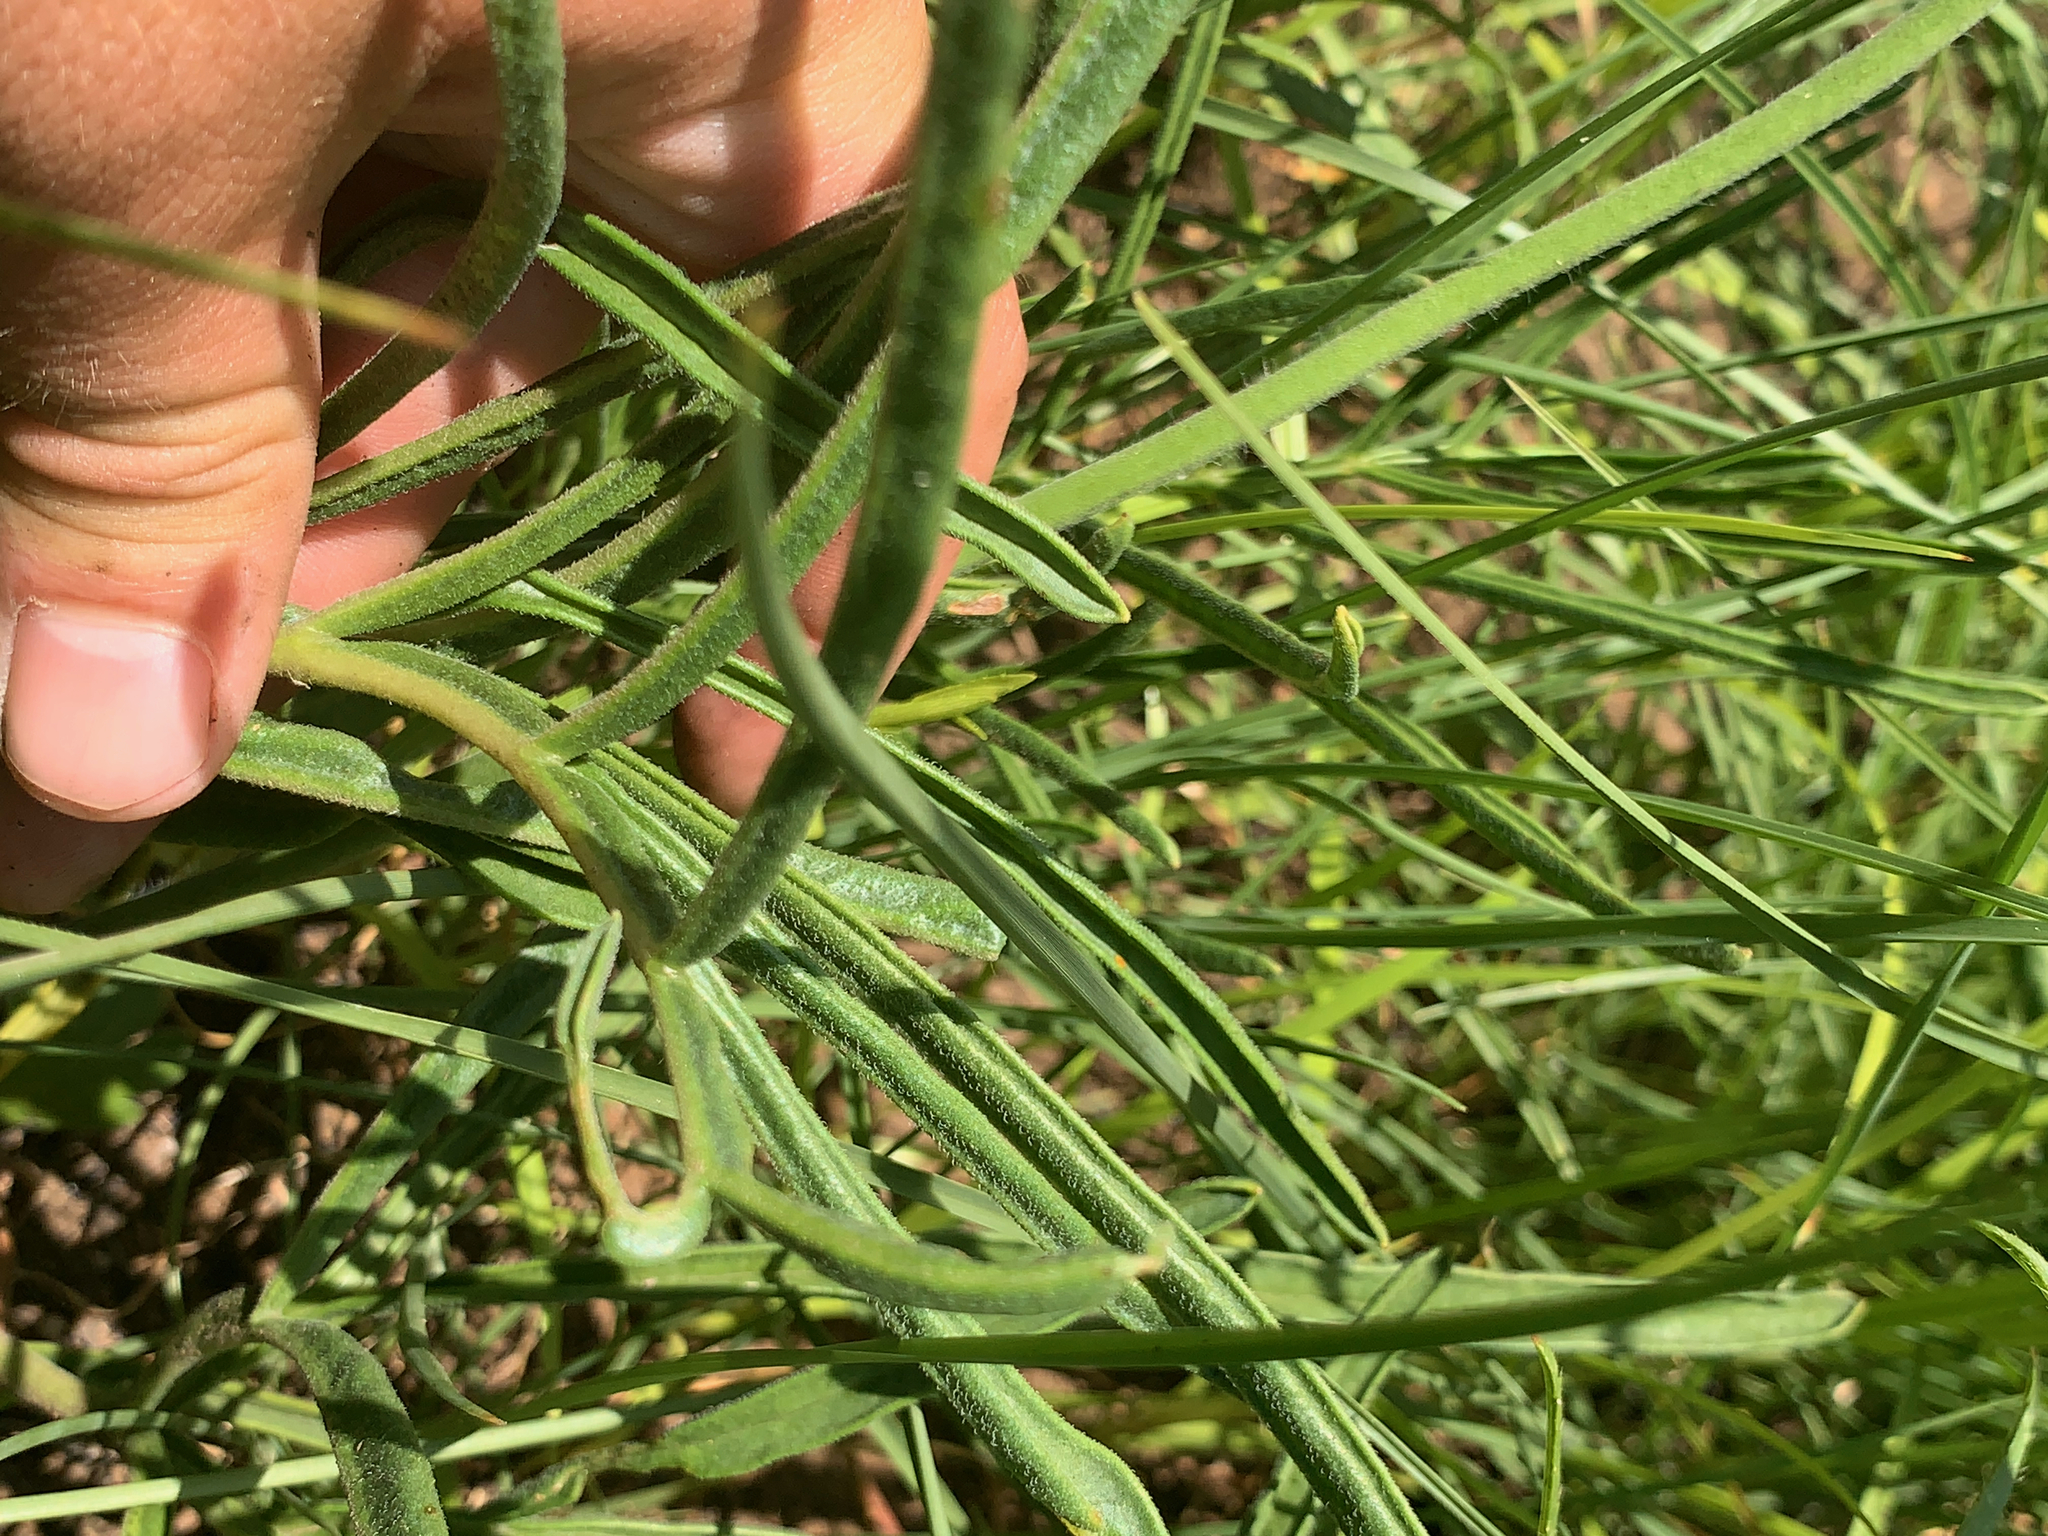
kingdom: Plantae
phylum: Tracheophyta
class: Magnoliopsida
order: Geraniales
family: Geraniaceae
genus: Pelargonium
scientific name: Pelargonium luridum
